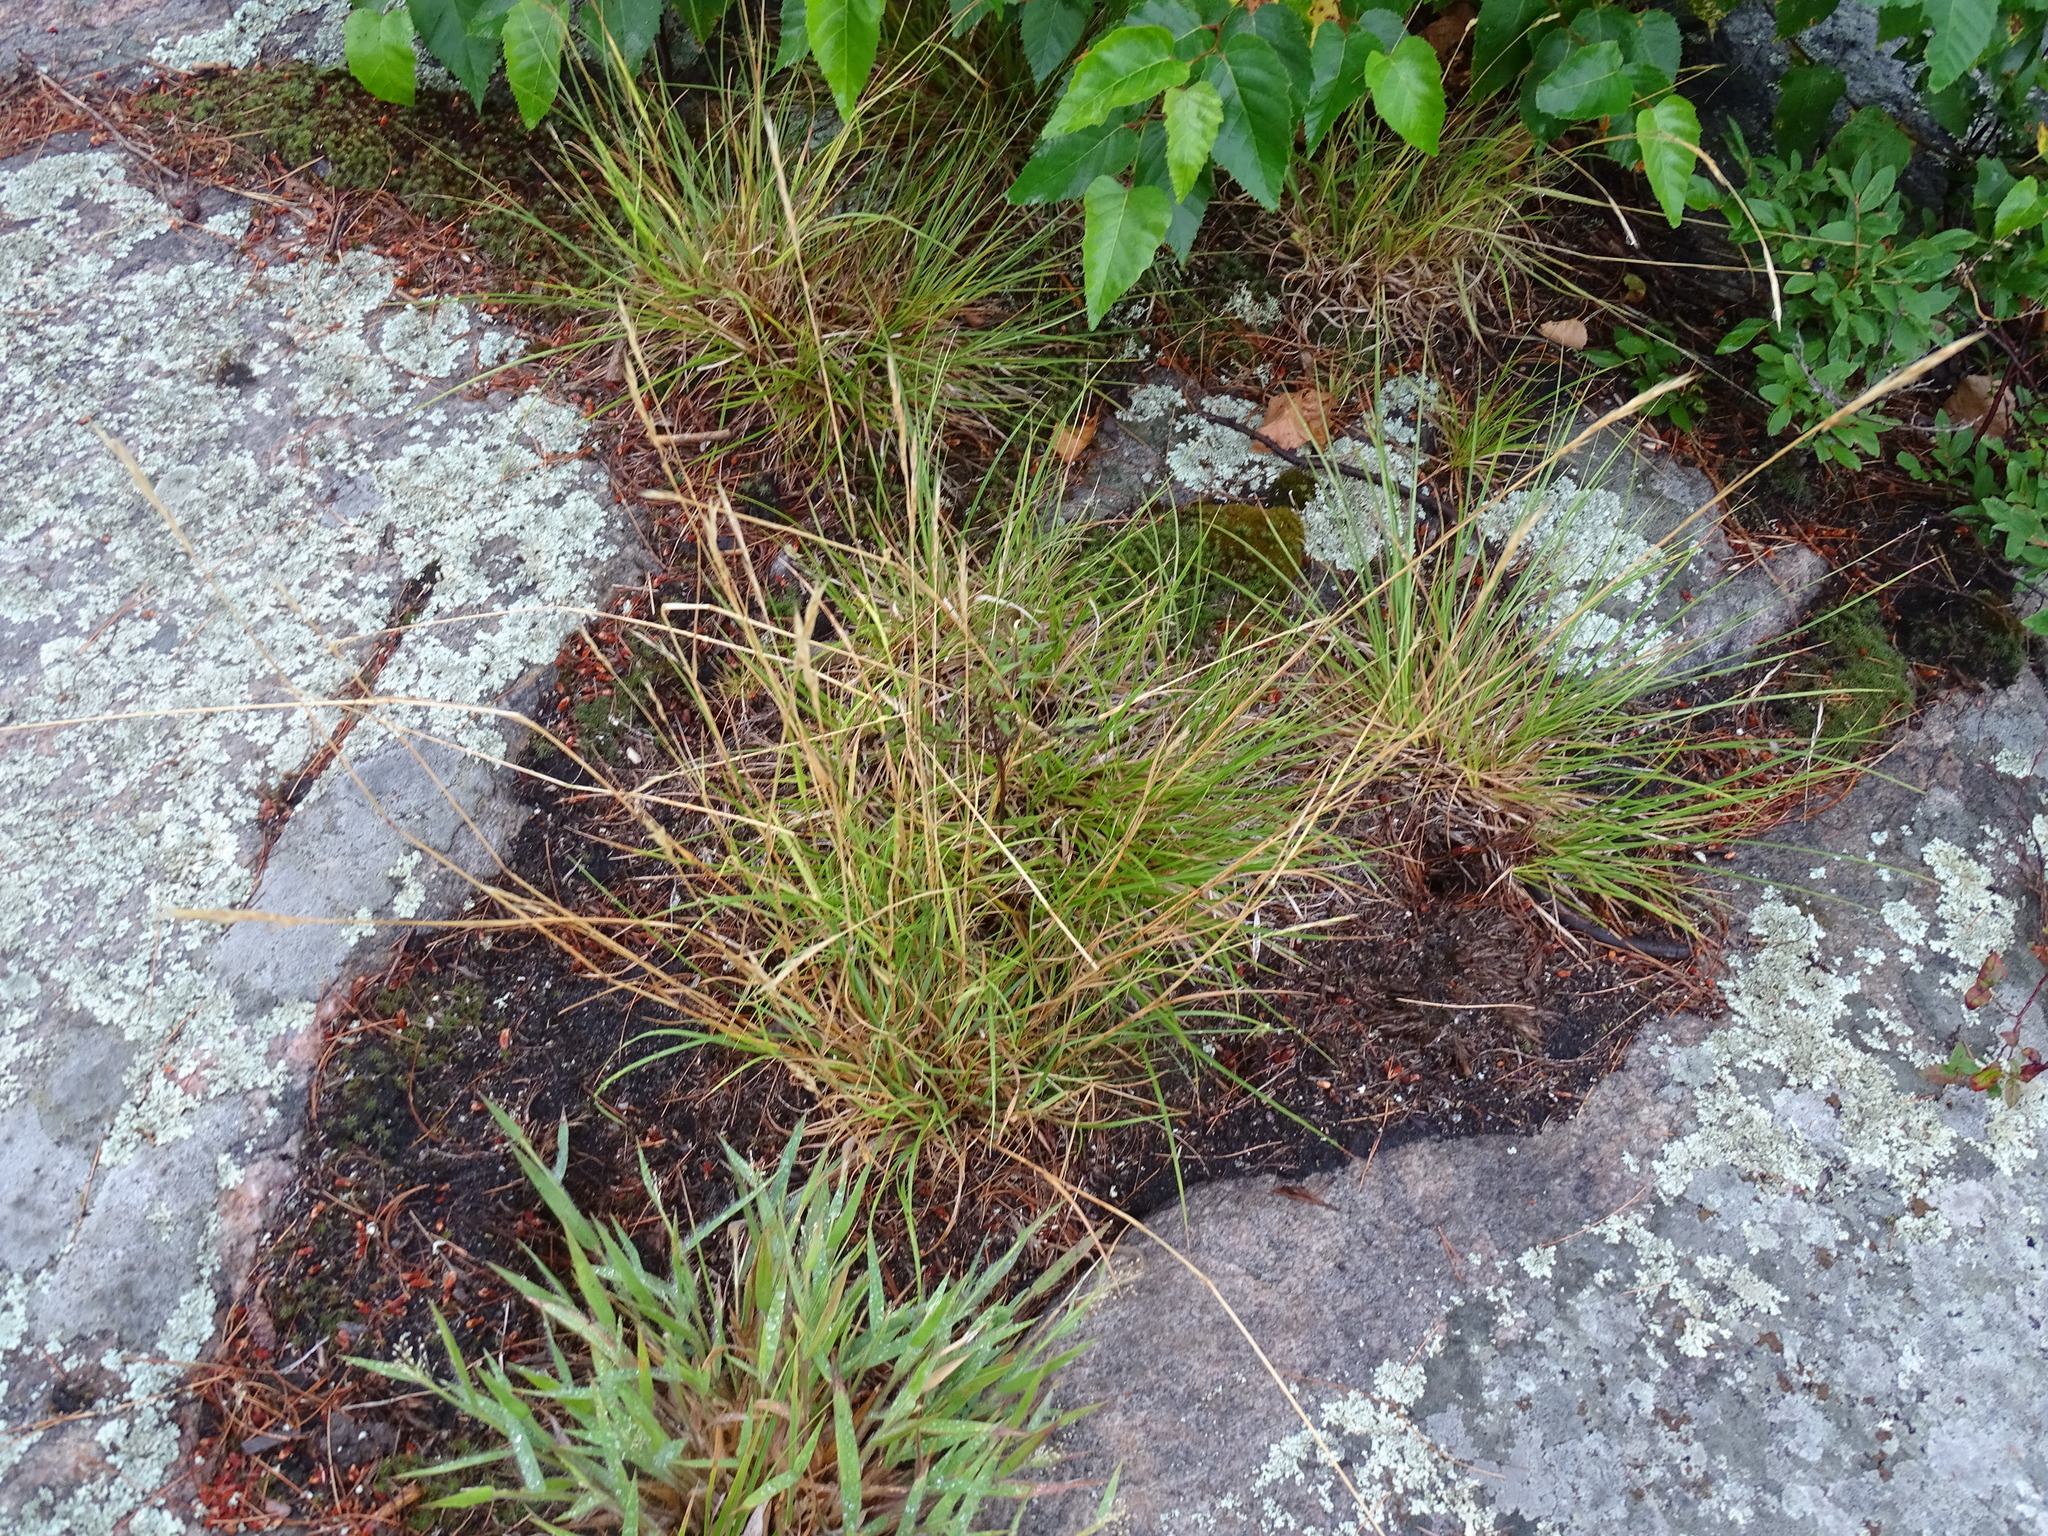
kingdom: Plantae
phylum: Tracheophyta
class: Liliopsida
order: Poales
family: Poaceae
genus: Danthonia
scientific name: Danthonia spicata
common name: Common wild oatgrass
